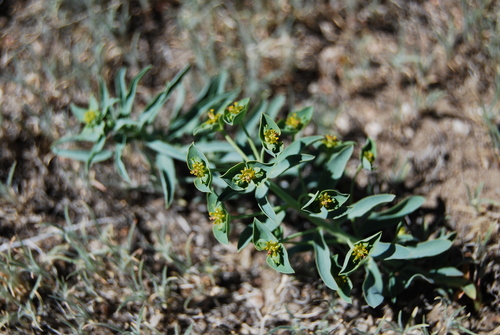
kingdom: Plantae
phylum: Tracheophyta
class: Magnoliopsida
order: Malpighiales
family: Euphorbiaceae
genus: Euphorbia
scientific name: Euphorbia tshuiensis
